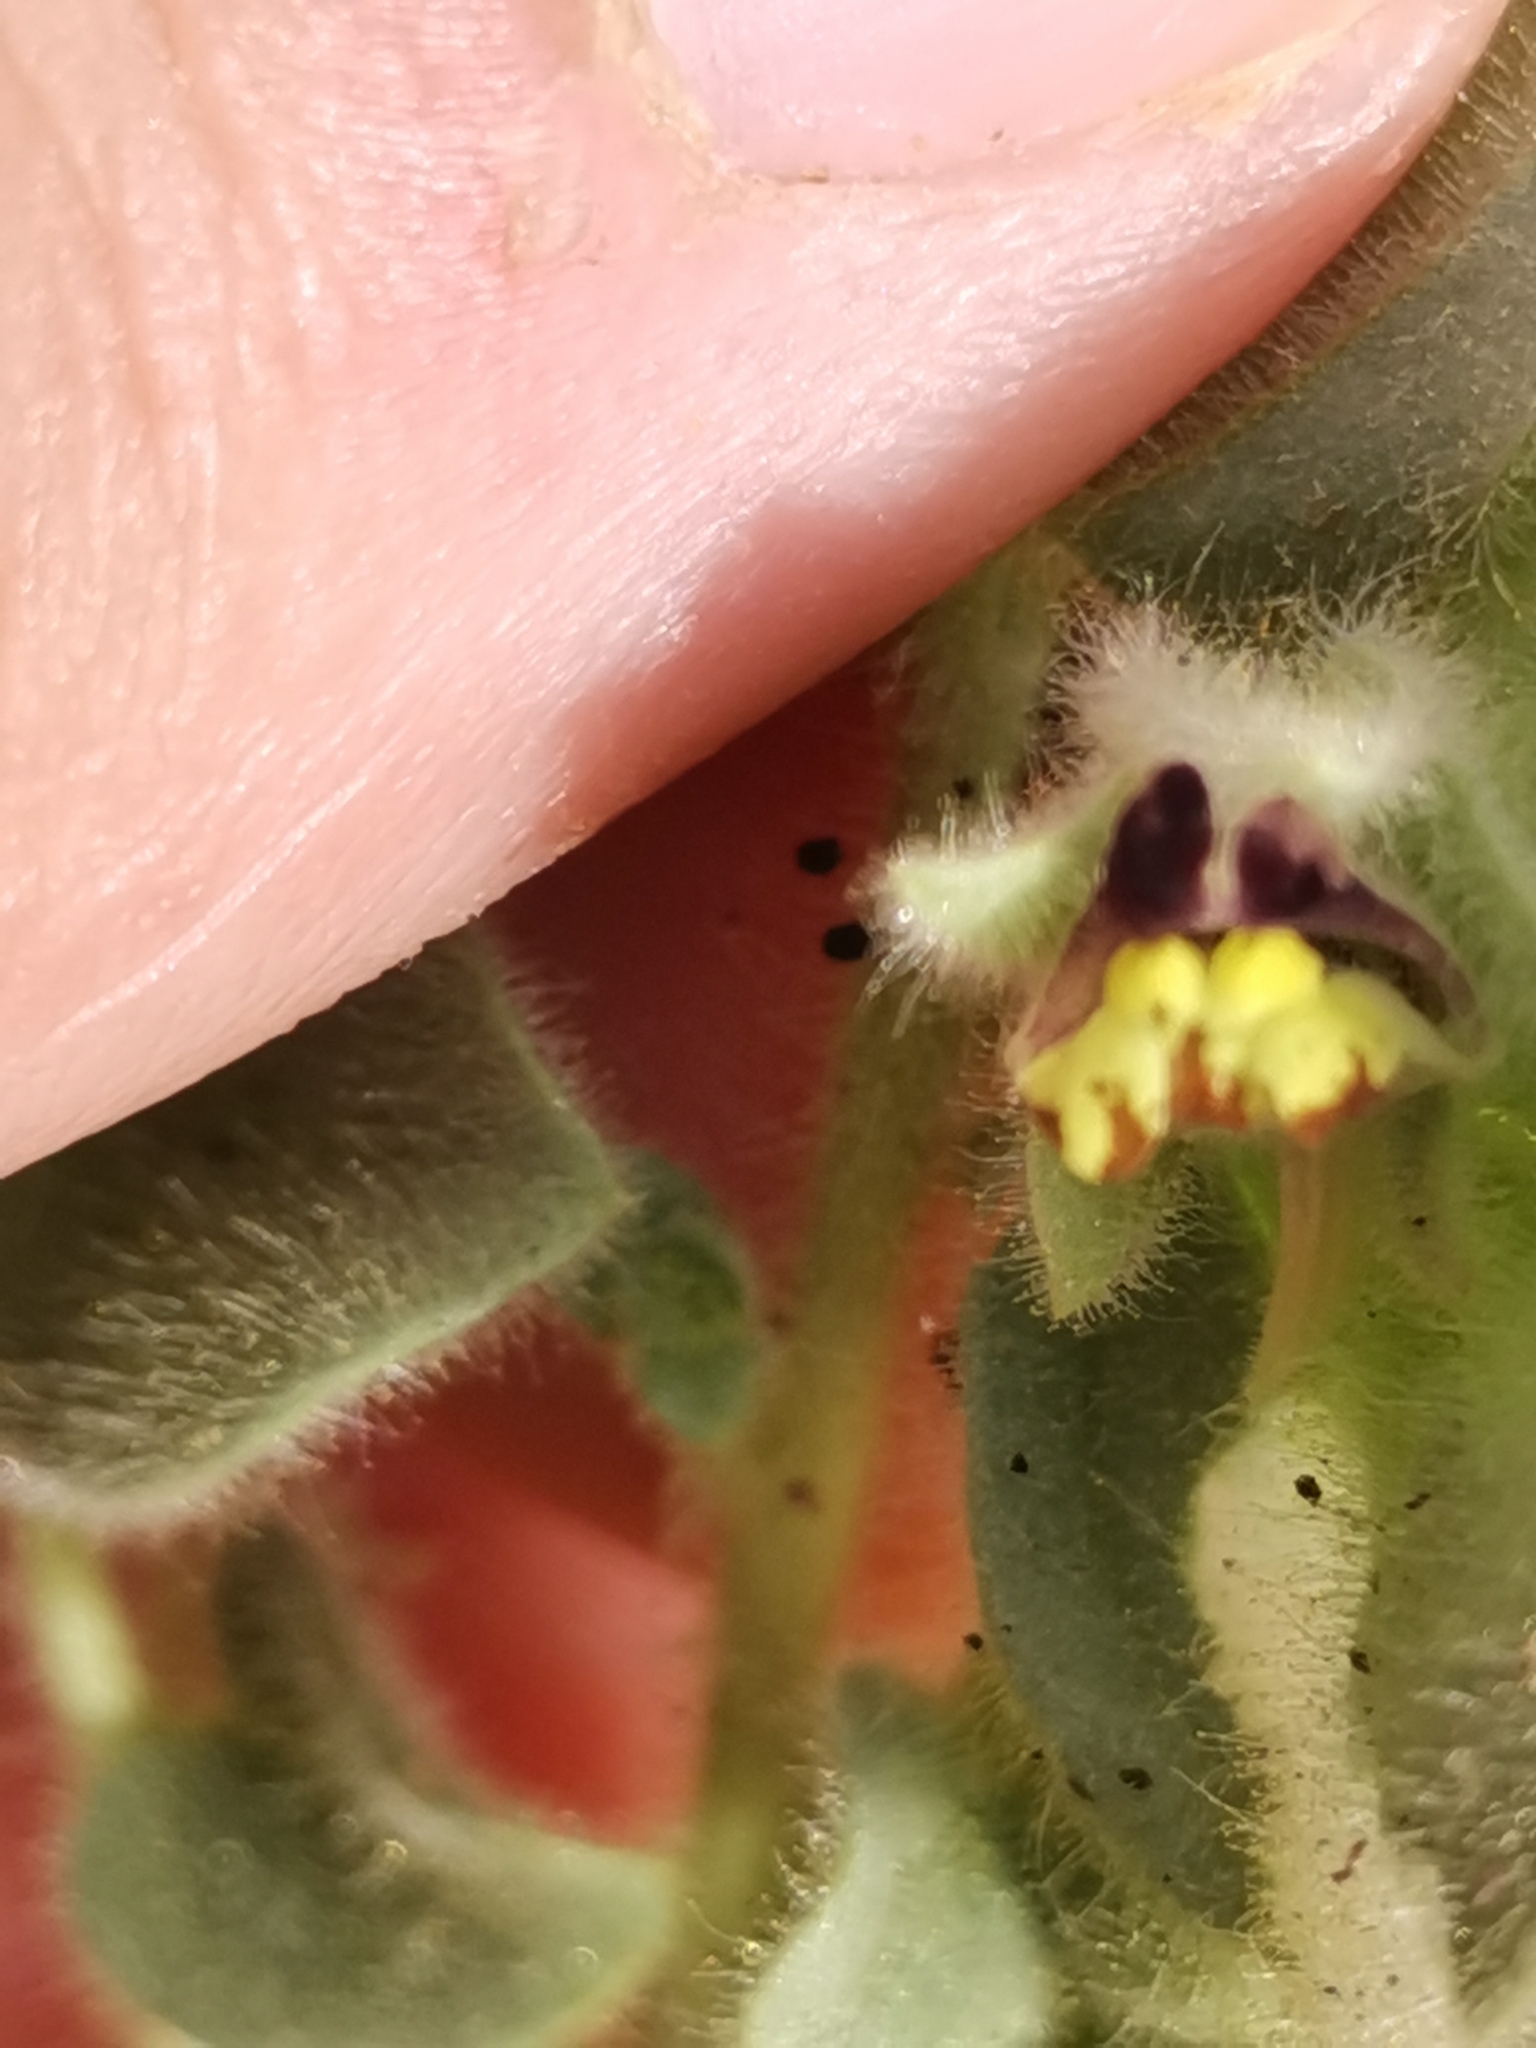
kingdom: Plantae
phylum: Tracheophyta
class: Magnoliopsida
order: Lamiales
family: Plantaginaceae
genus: Kickxia
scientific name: Kickxia spuria
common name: Round-leaved fluellen
